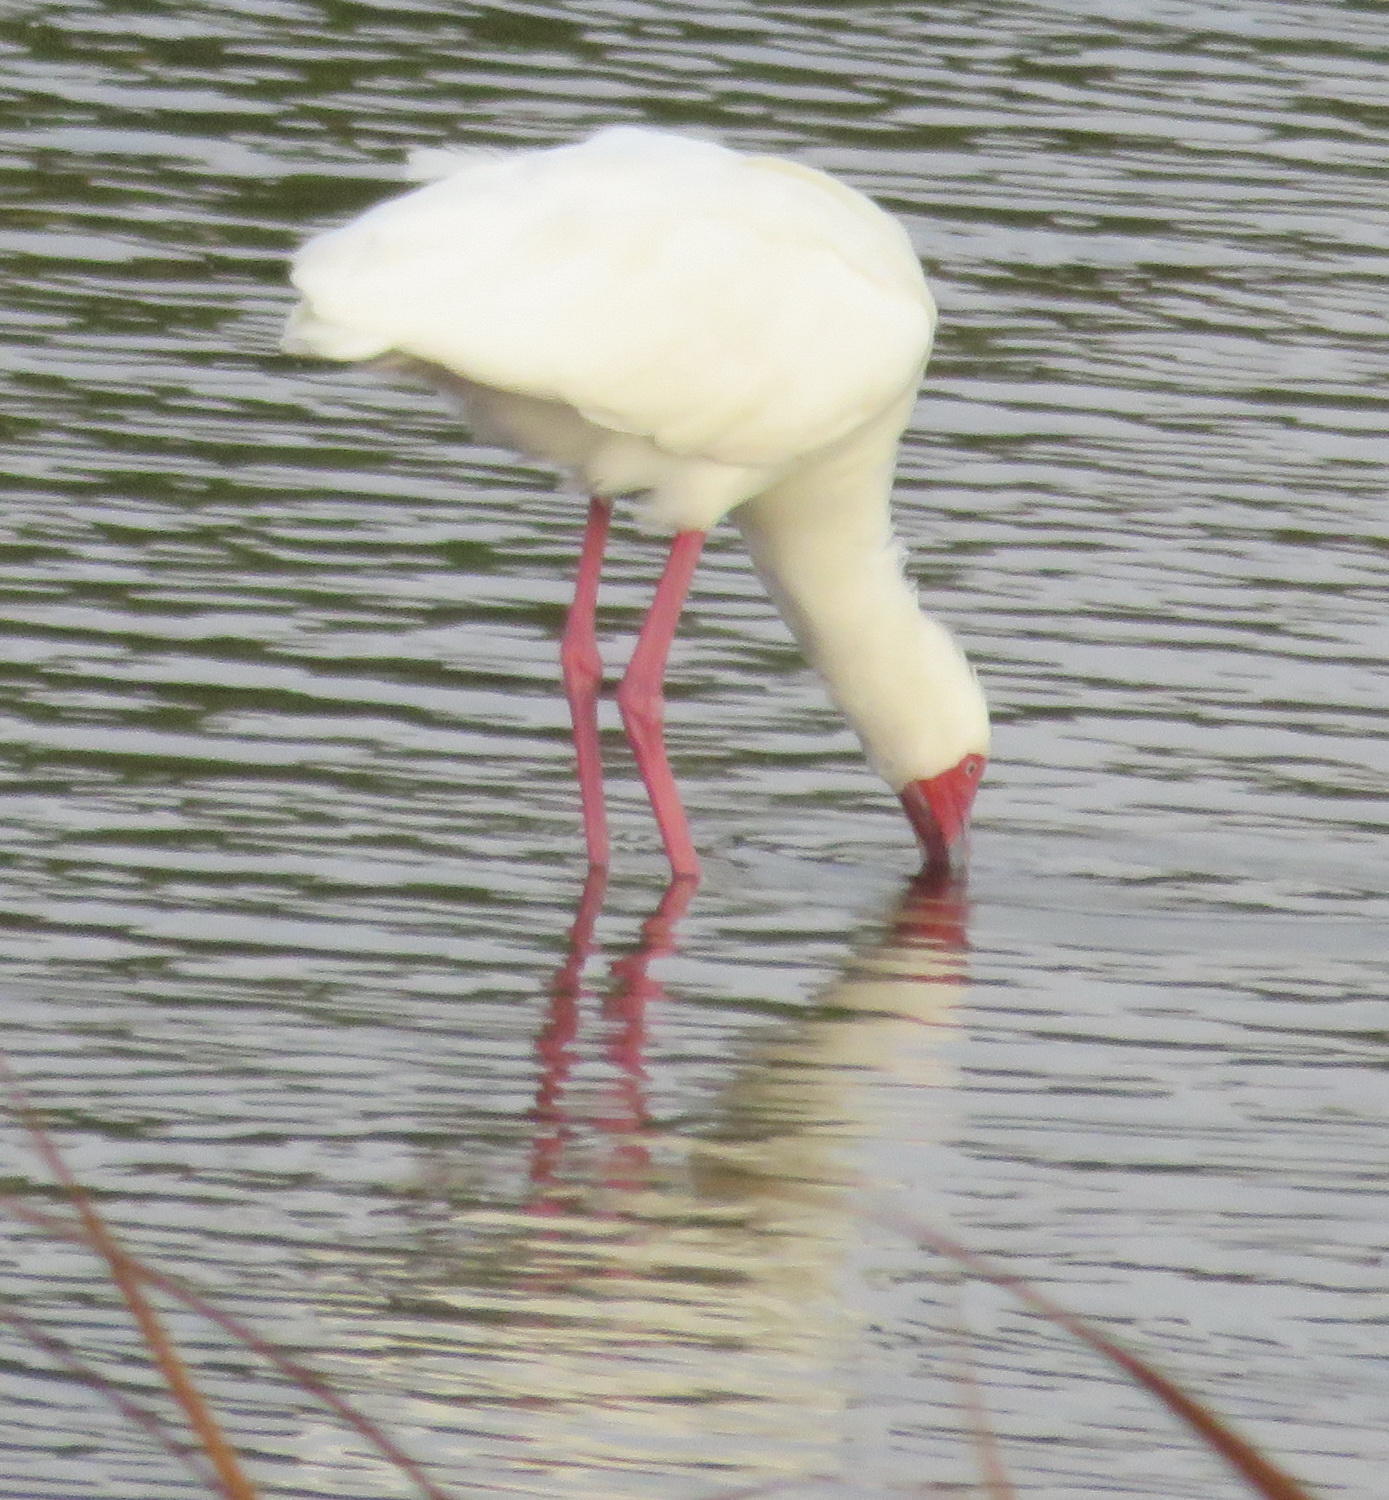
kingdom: Animalia
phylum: Chordata
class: Aves
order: Pelecaniformes
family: Threskiornithidae
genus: Platalea
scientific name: Platalea alba
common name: African spoonbill
